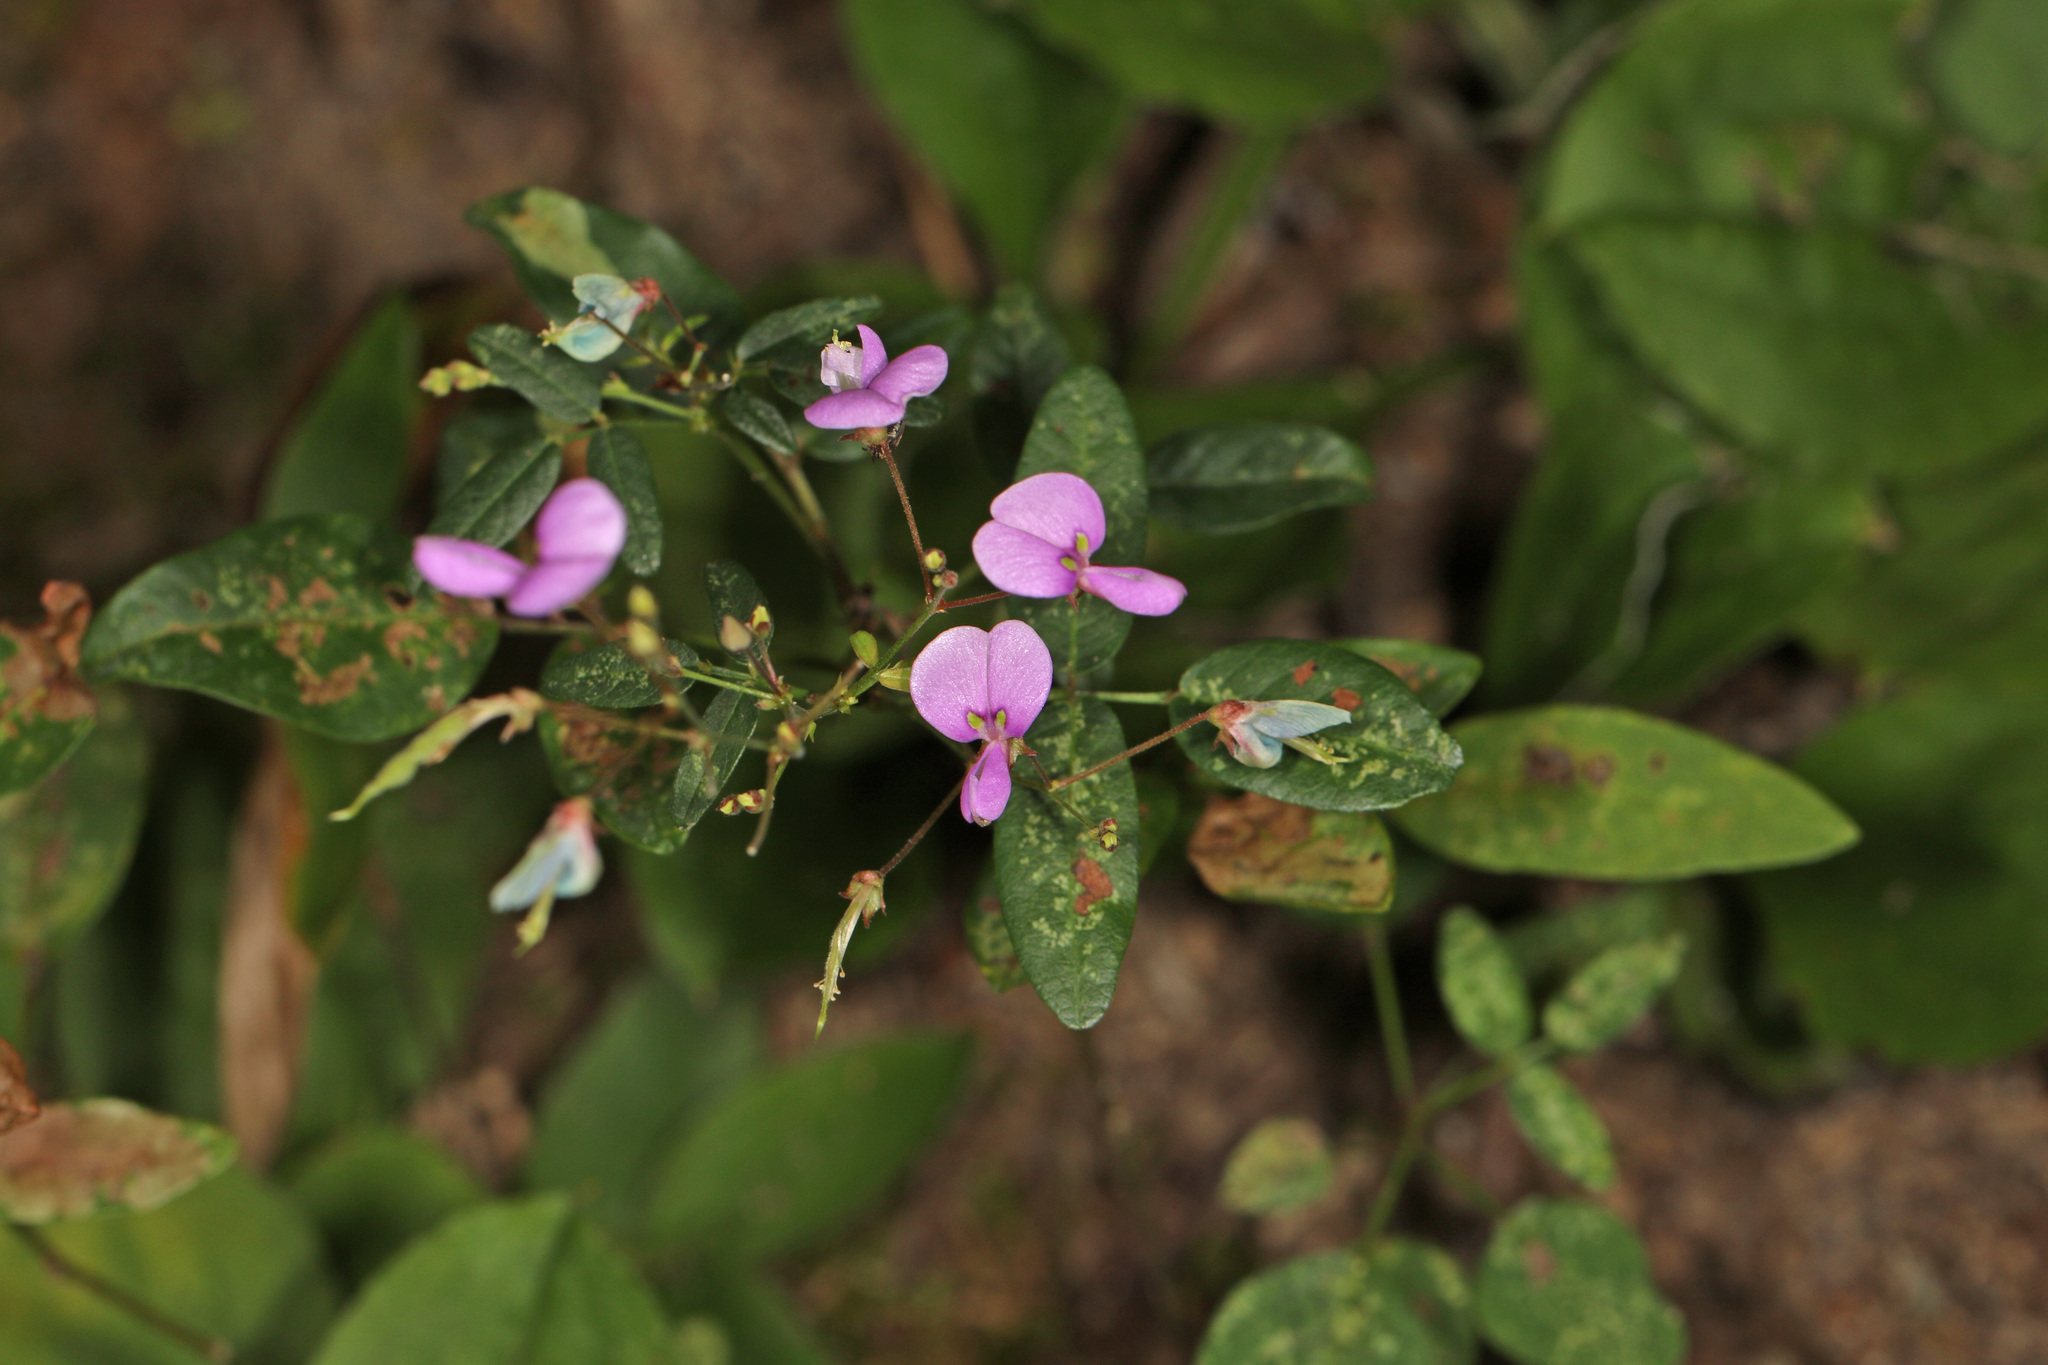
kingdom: Plantae
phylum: Tracheophyta
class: Magnoliopsida
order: Fabales
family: Fabaceae
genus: Desmodium
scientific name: Desmodium paniculatum
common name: Panicled tick-clover
